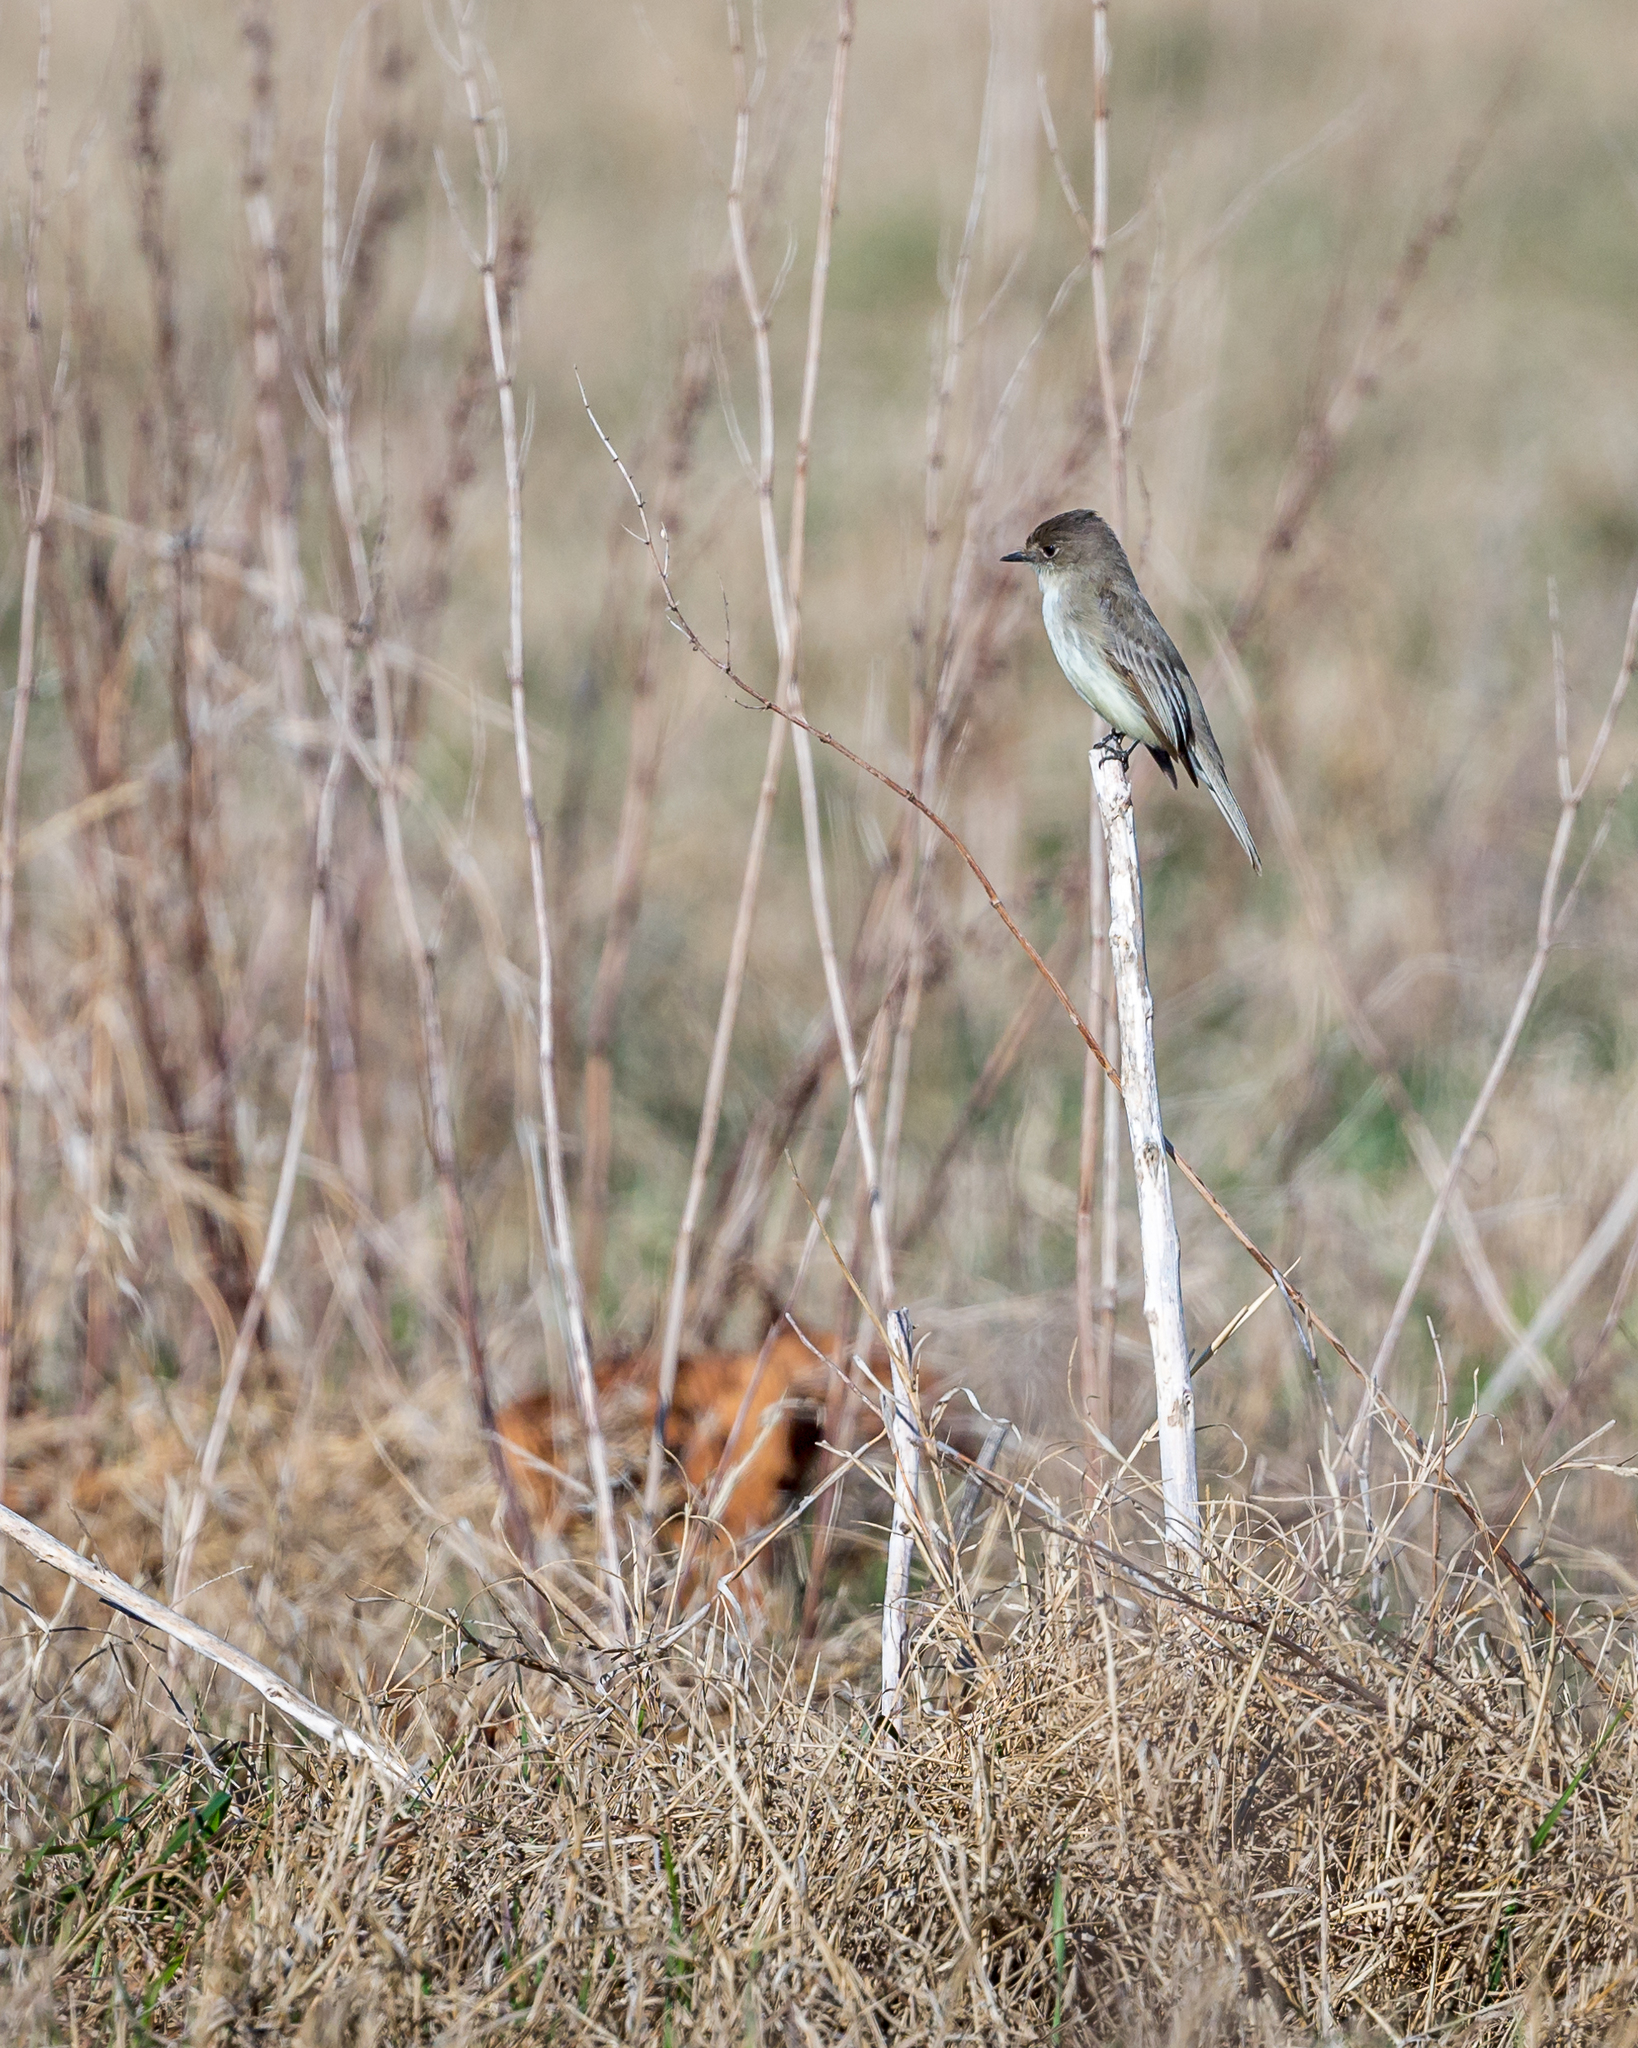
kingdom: Animalia
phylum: Chordata
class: Aves
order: Passeriformes
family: Tyrannidae
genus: Sayornis
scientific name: Sayornis phoebe
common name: Eastern phoebe
